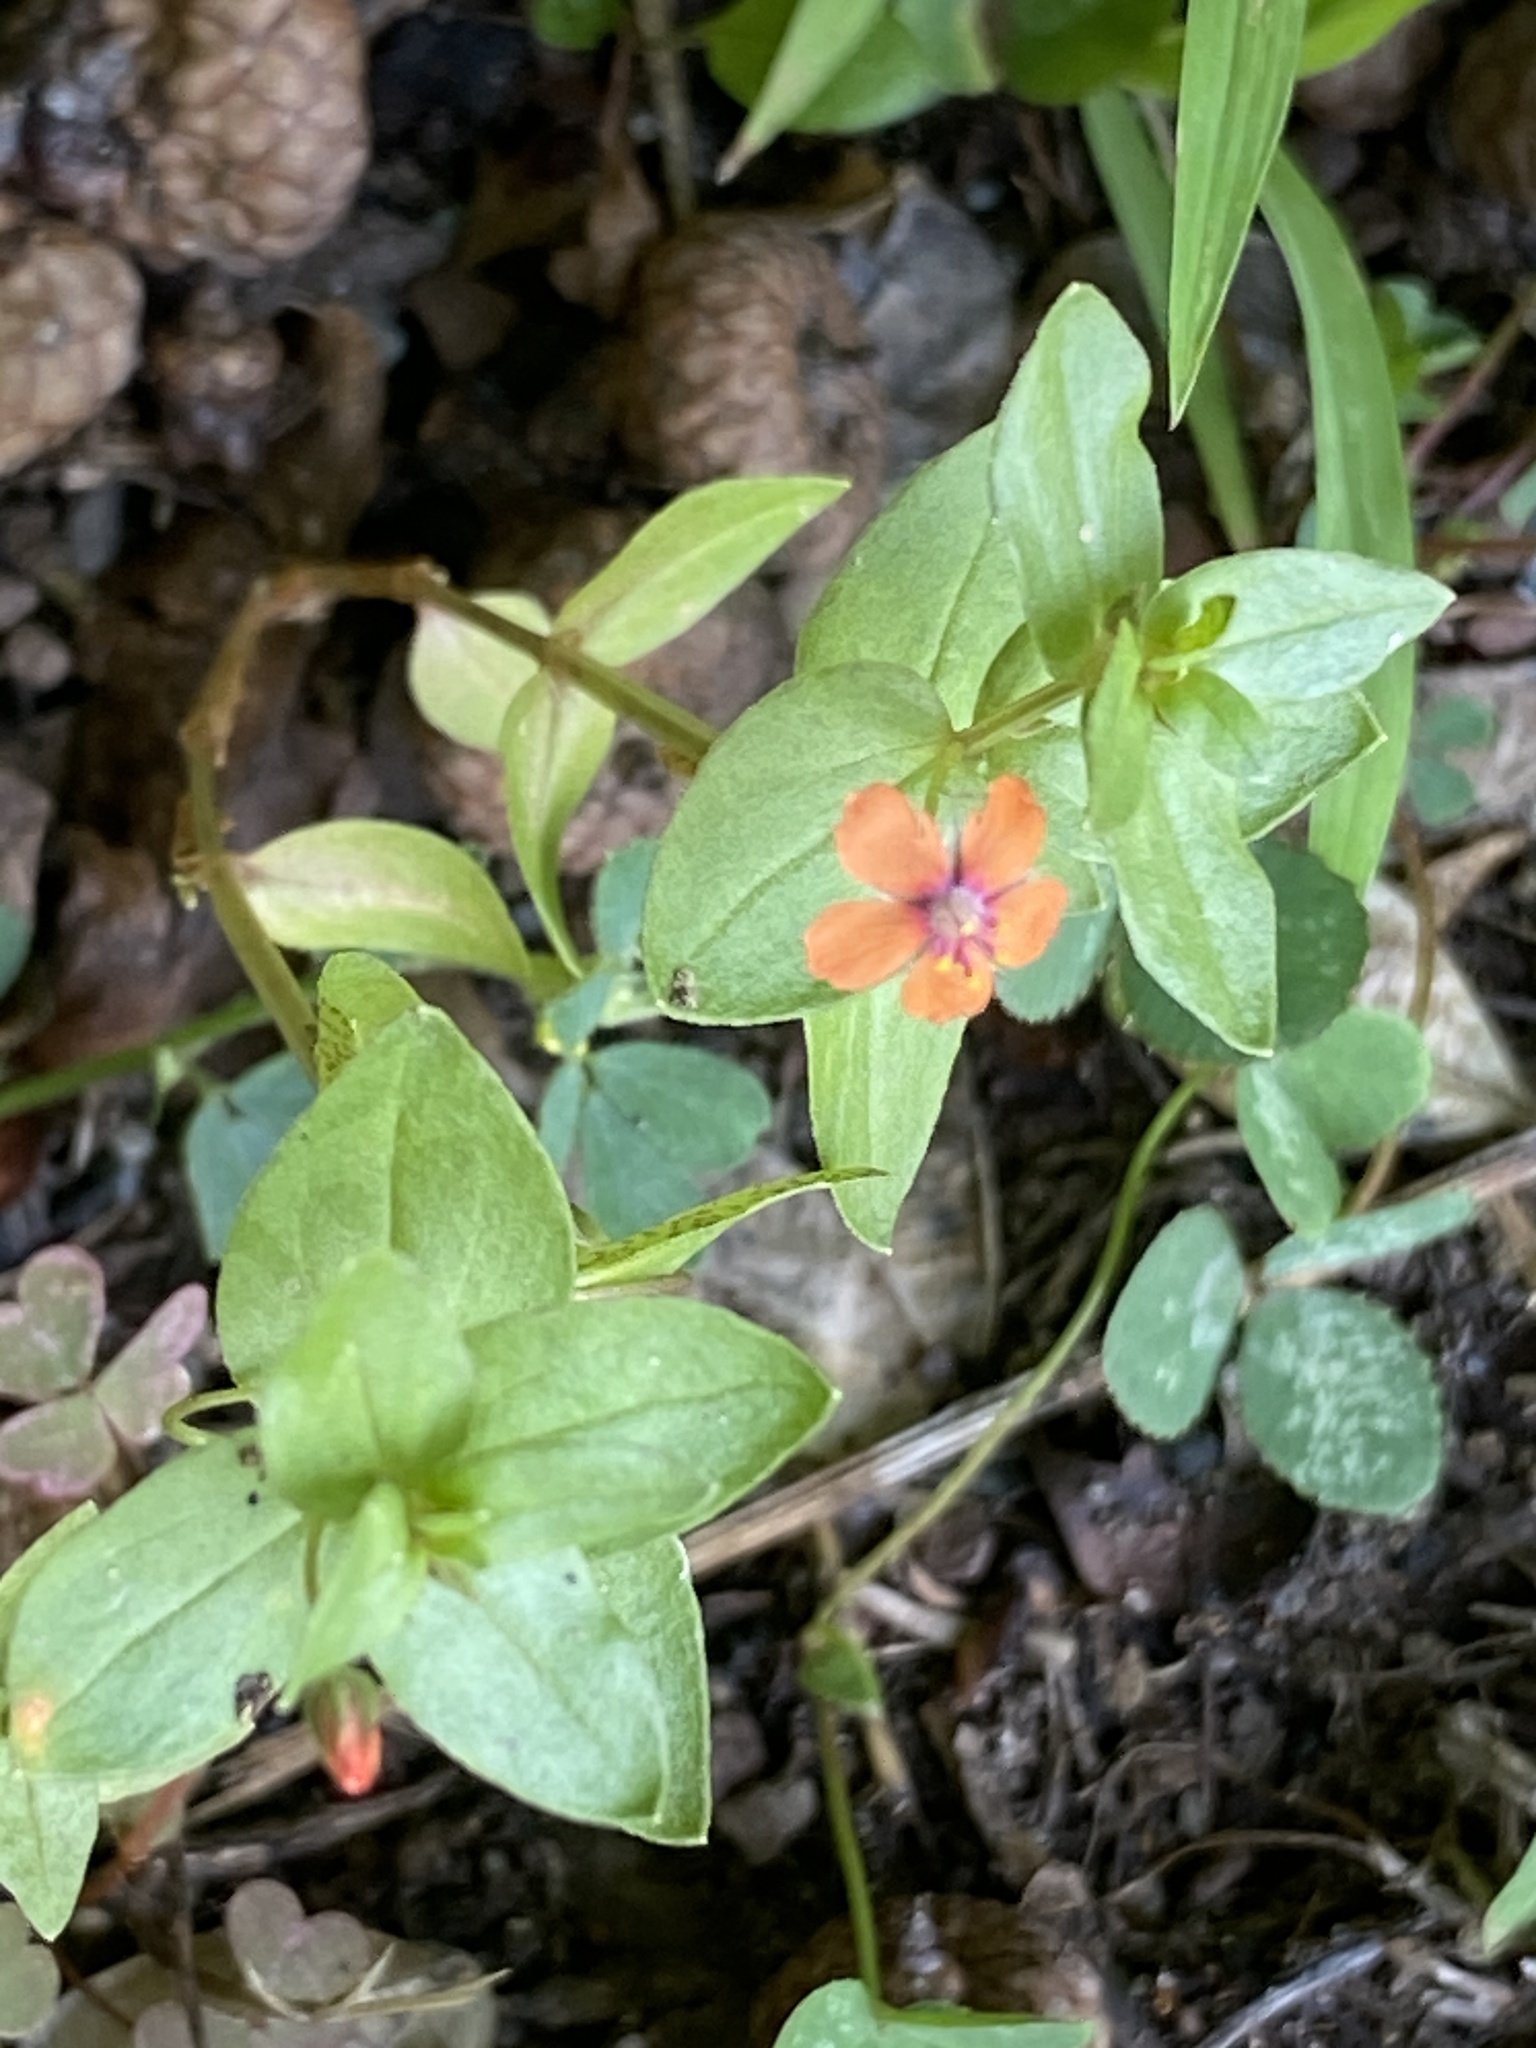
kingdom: Plantae
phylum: Tracheophyta
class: Magnoliopsida
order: Ericales
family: Primulaceae
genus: Lysimachia
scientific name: Lysimachia arvensis
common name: Scarlet pimpernel
